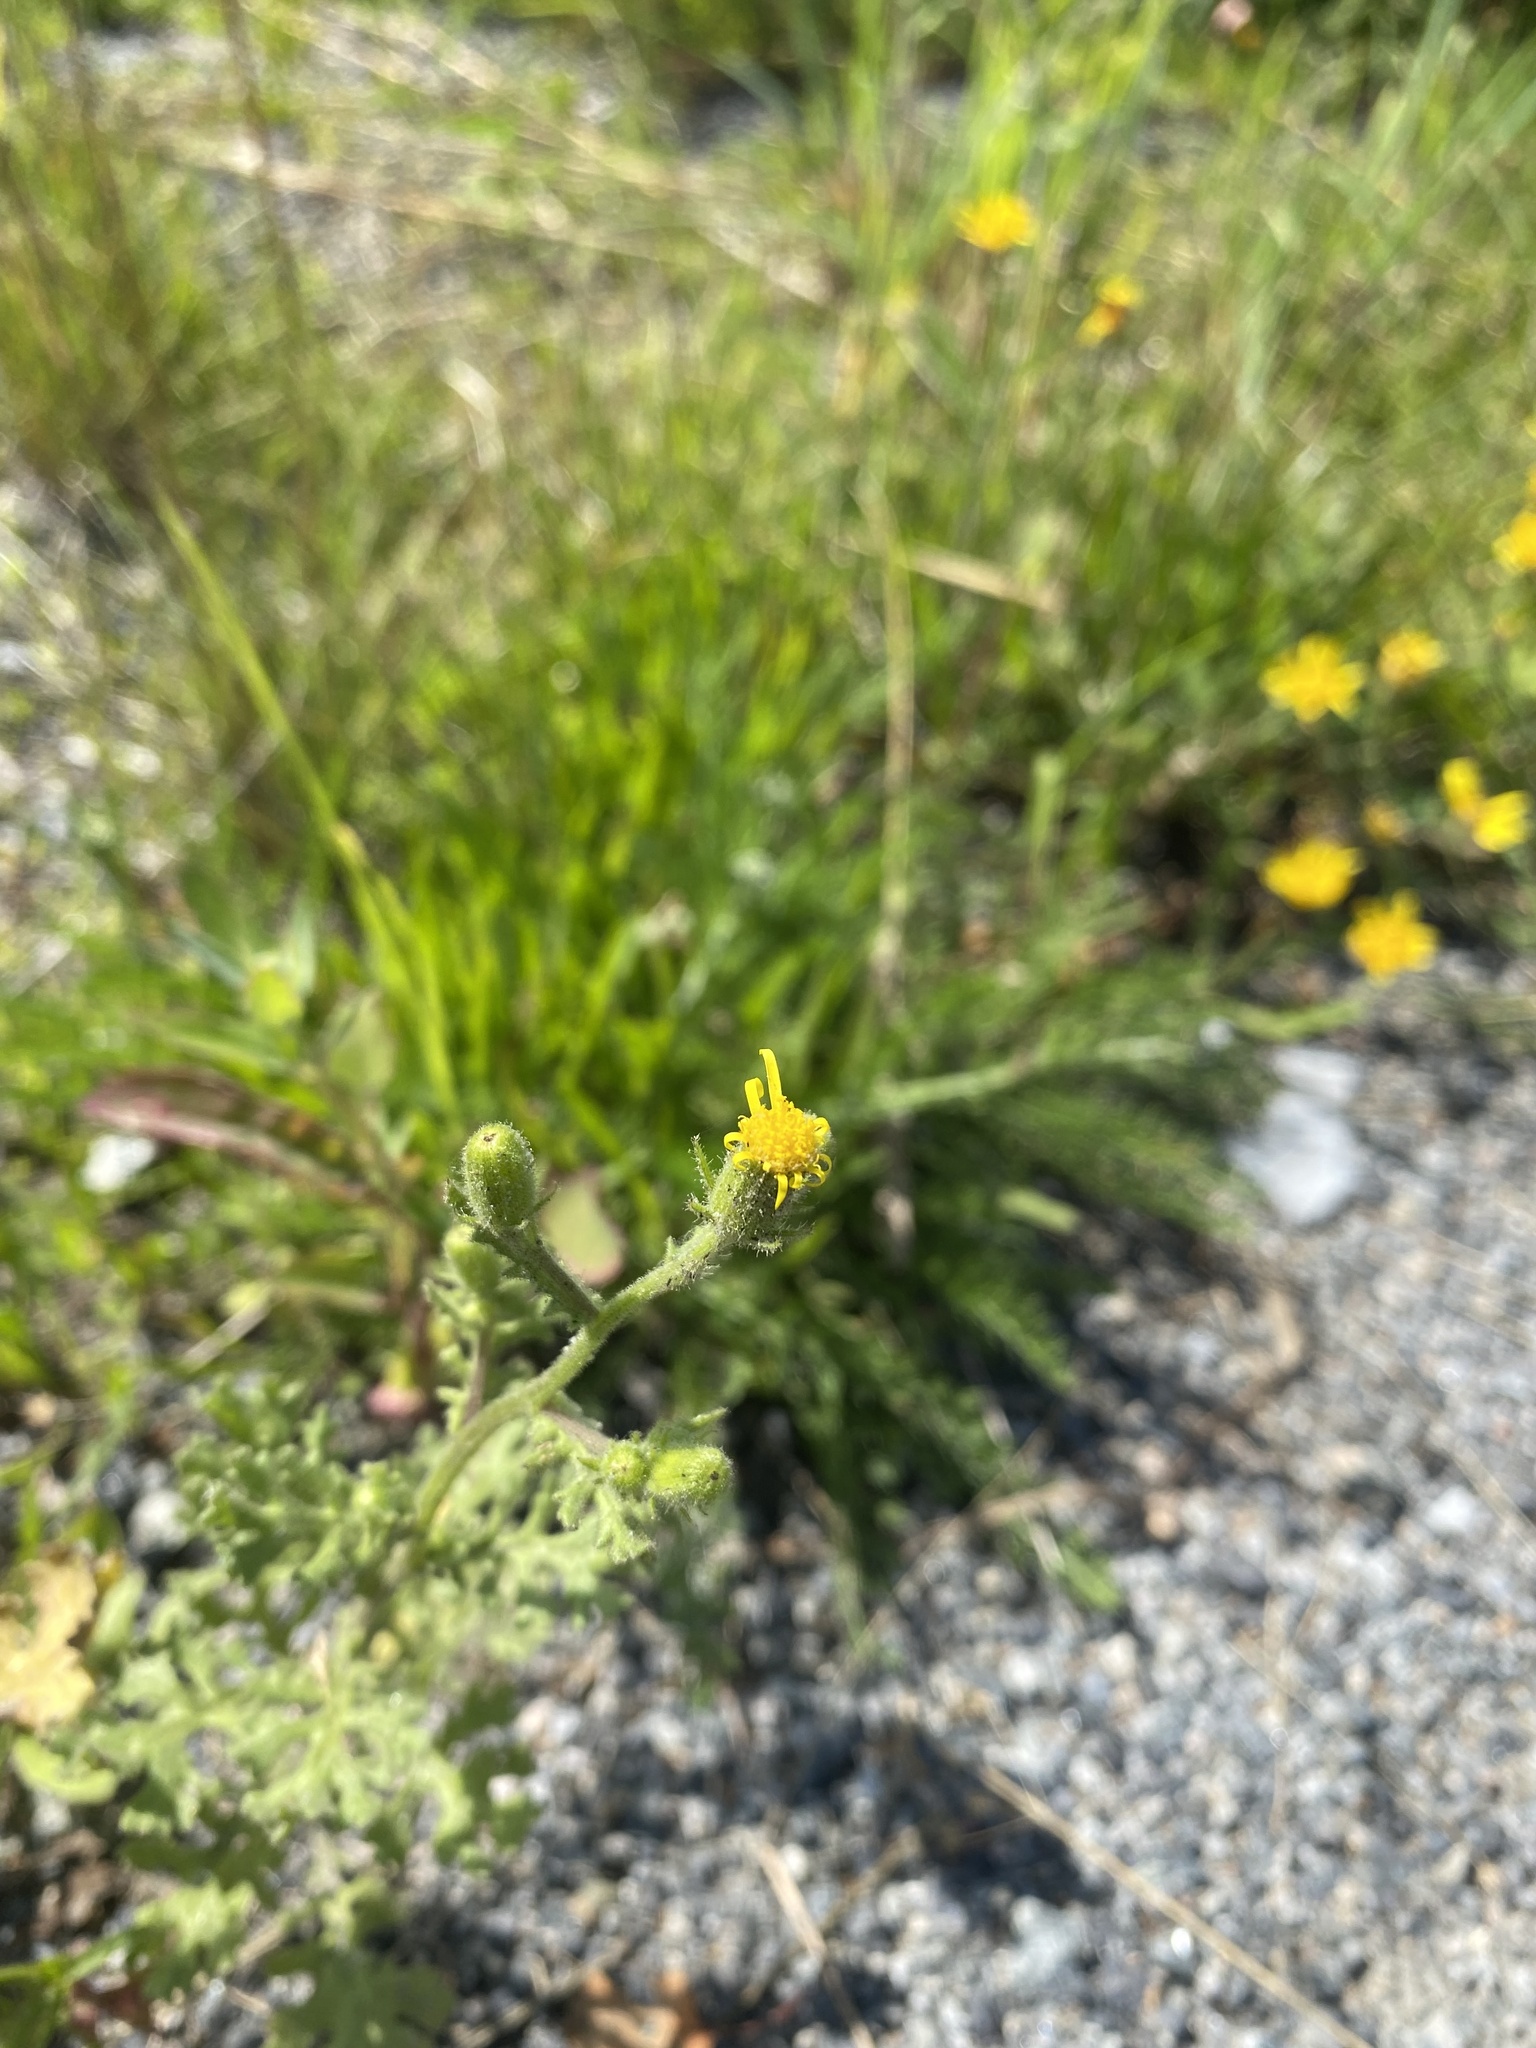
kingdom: Plantae
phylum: Tracheophyta
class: Magnoliopsida
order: Asterales
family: Asteraceae
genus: Senecio
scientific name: Senecio viscosus
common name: Sticky groundsel
